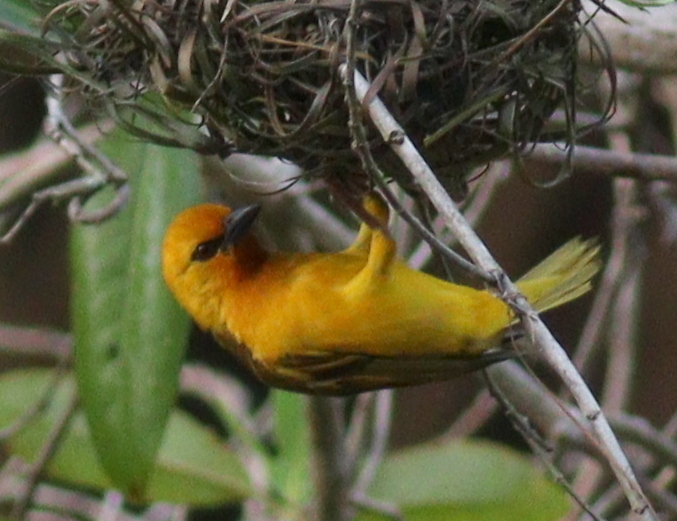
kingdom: Animalia
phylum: Chordata
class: Aves
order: Passeriformes
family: Ploceidae
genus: Ploceus
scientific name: Ploceus aurantius
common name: Orange weaver
